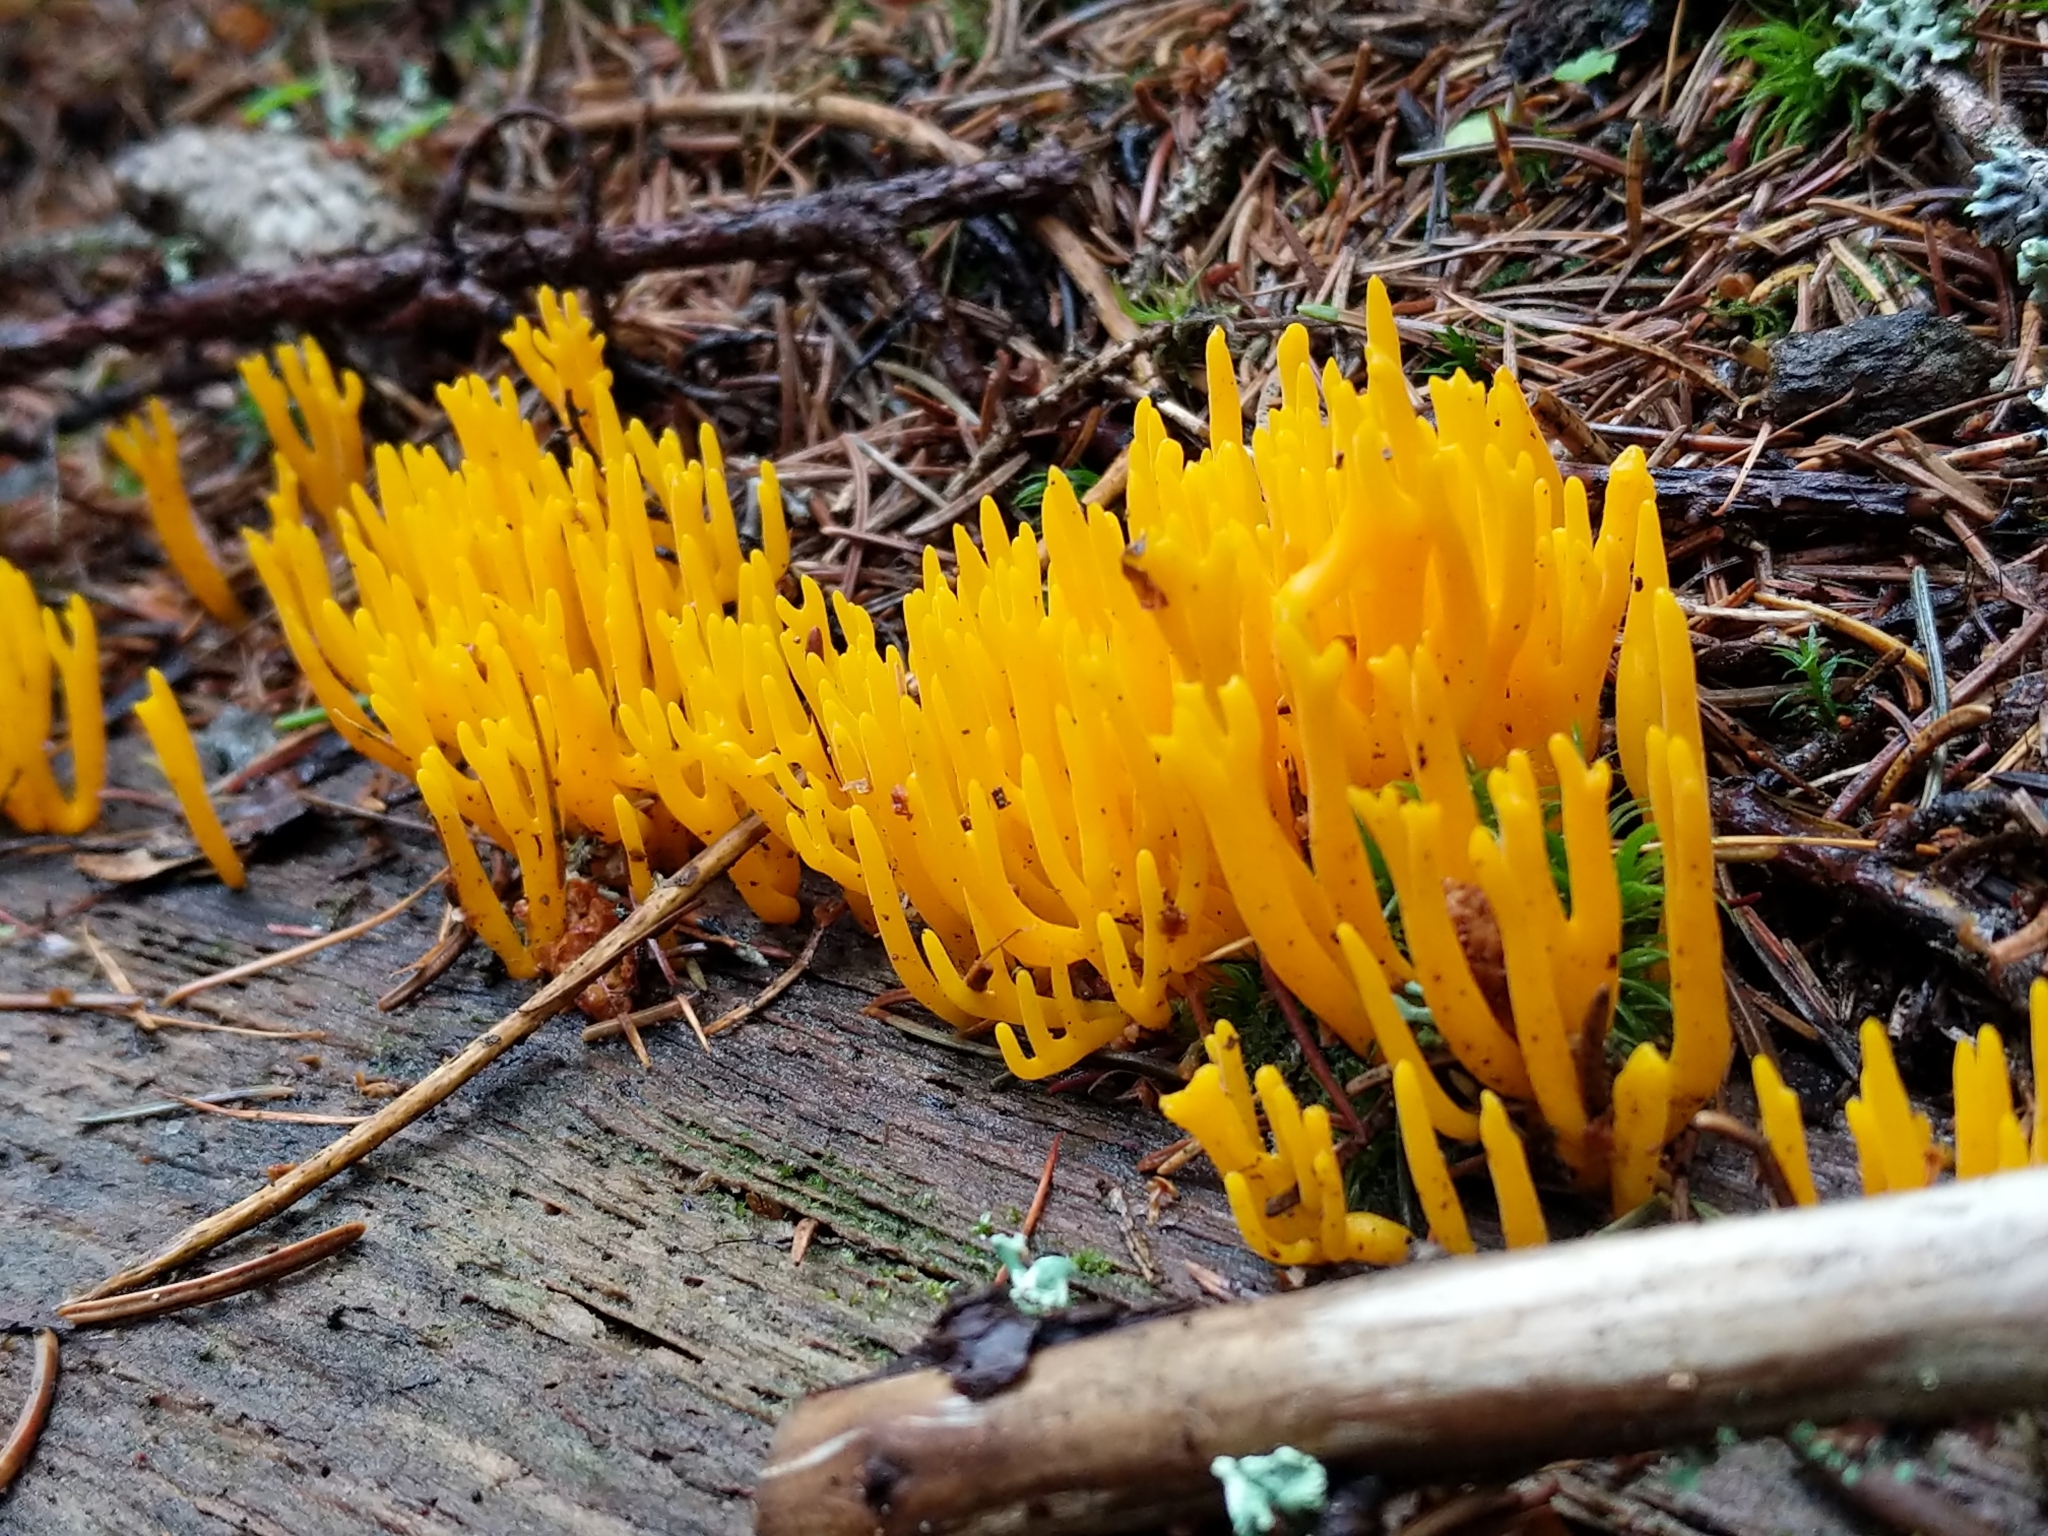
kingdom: Fungi
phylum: Basidiomycota
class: Dacrymycetes
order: Dacrymycetales
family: Dacrymycetaceae
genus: Calocera
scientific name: Calocera viscosa
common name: Yellow stagshorn
